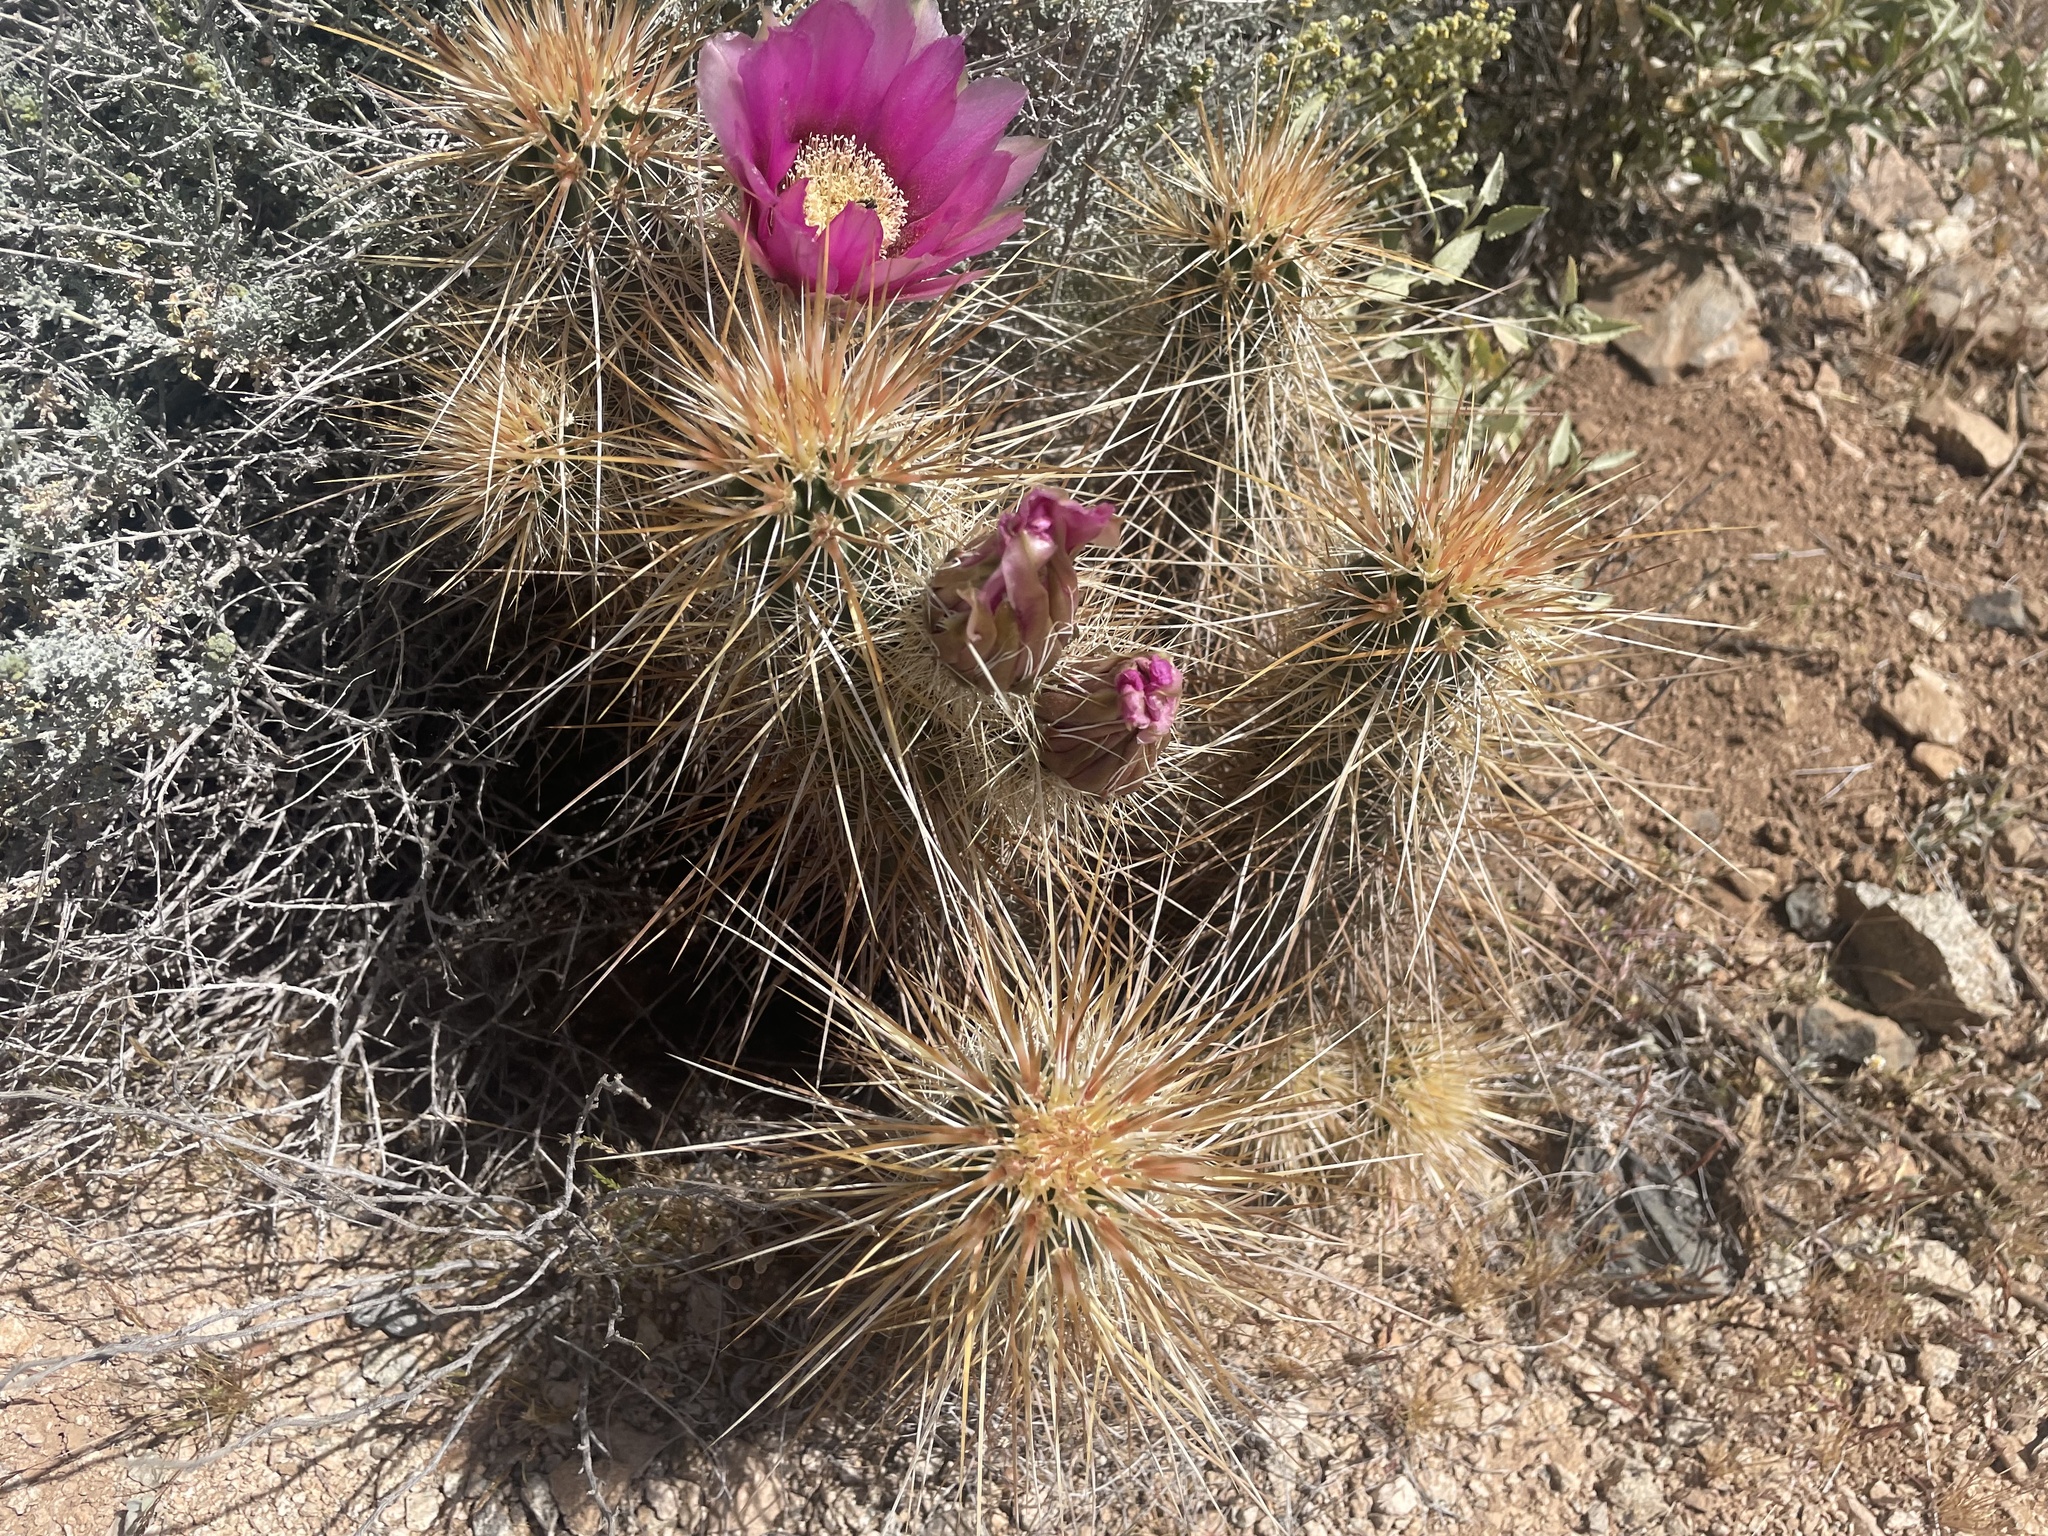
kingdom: Plantae
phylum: Tracheophyta
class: Magnoliopsida
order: Caryophyllales
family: Cactaceae
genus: Echinocereus
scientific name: Echinocereus engelmannii
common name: Engelmann's hedgehog cactus
